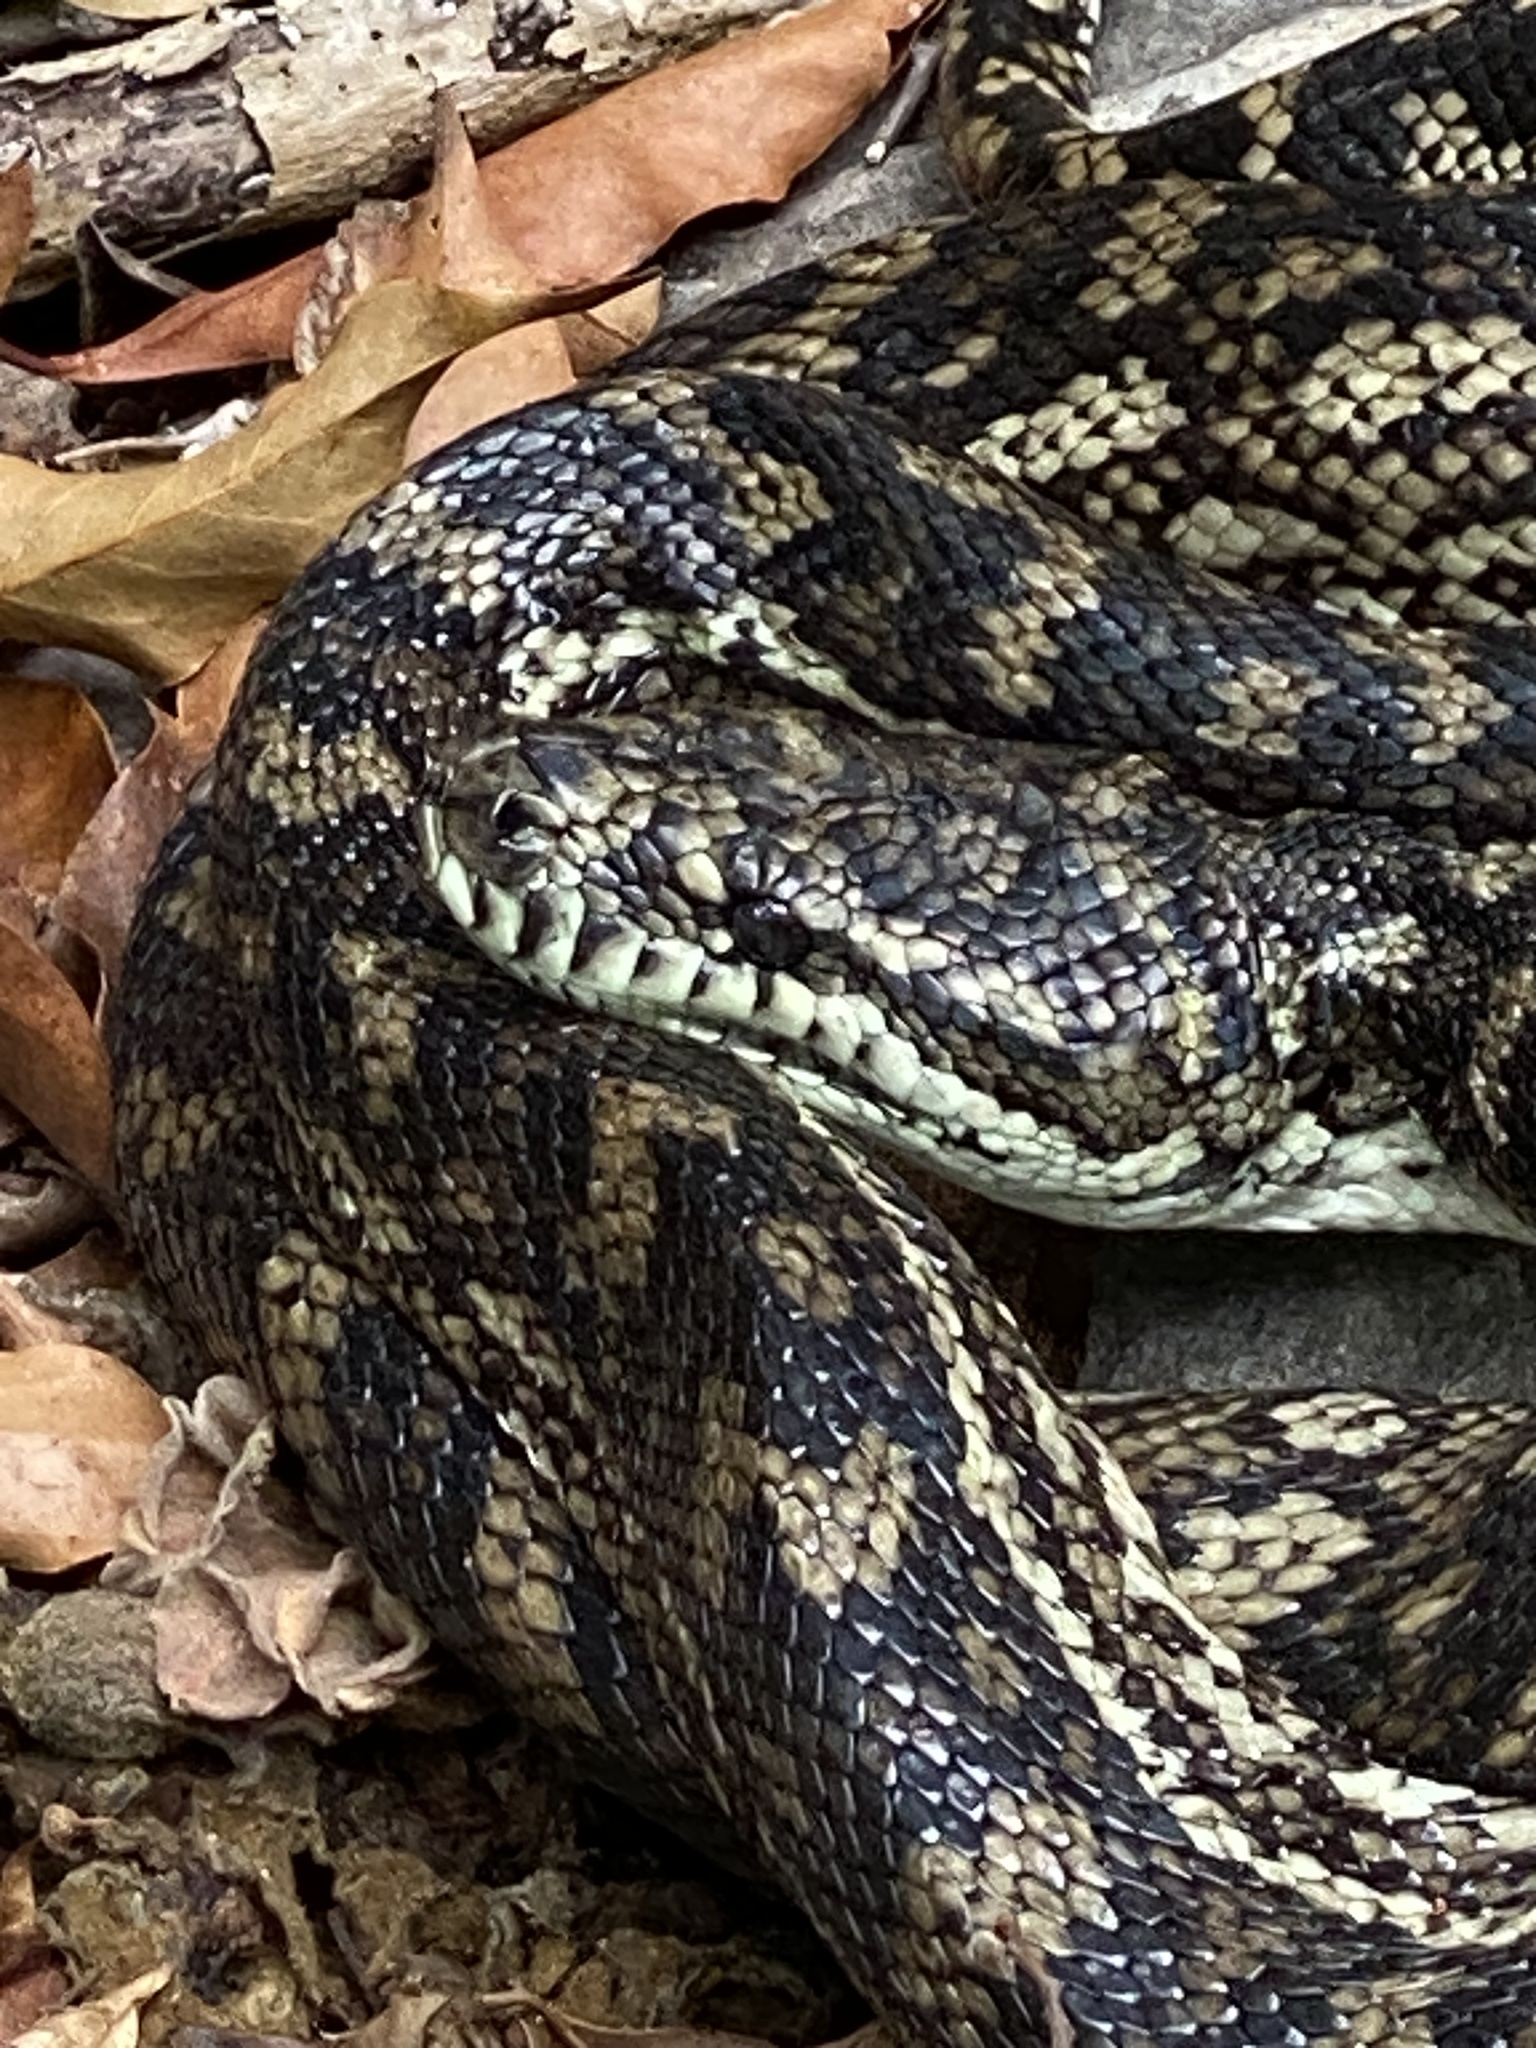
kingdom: Animalia
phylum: Chordata
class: Squamata
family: Pythonidae
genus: Morelia
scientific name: Morelia spilota
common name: Carpet python
